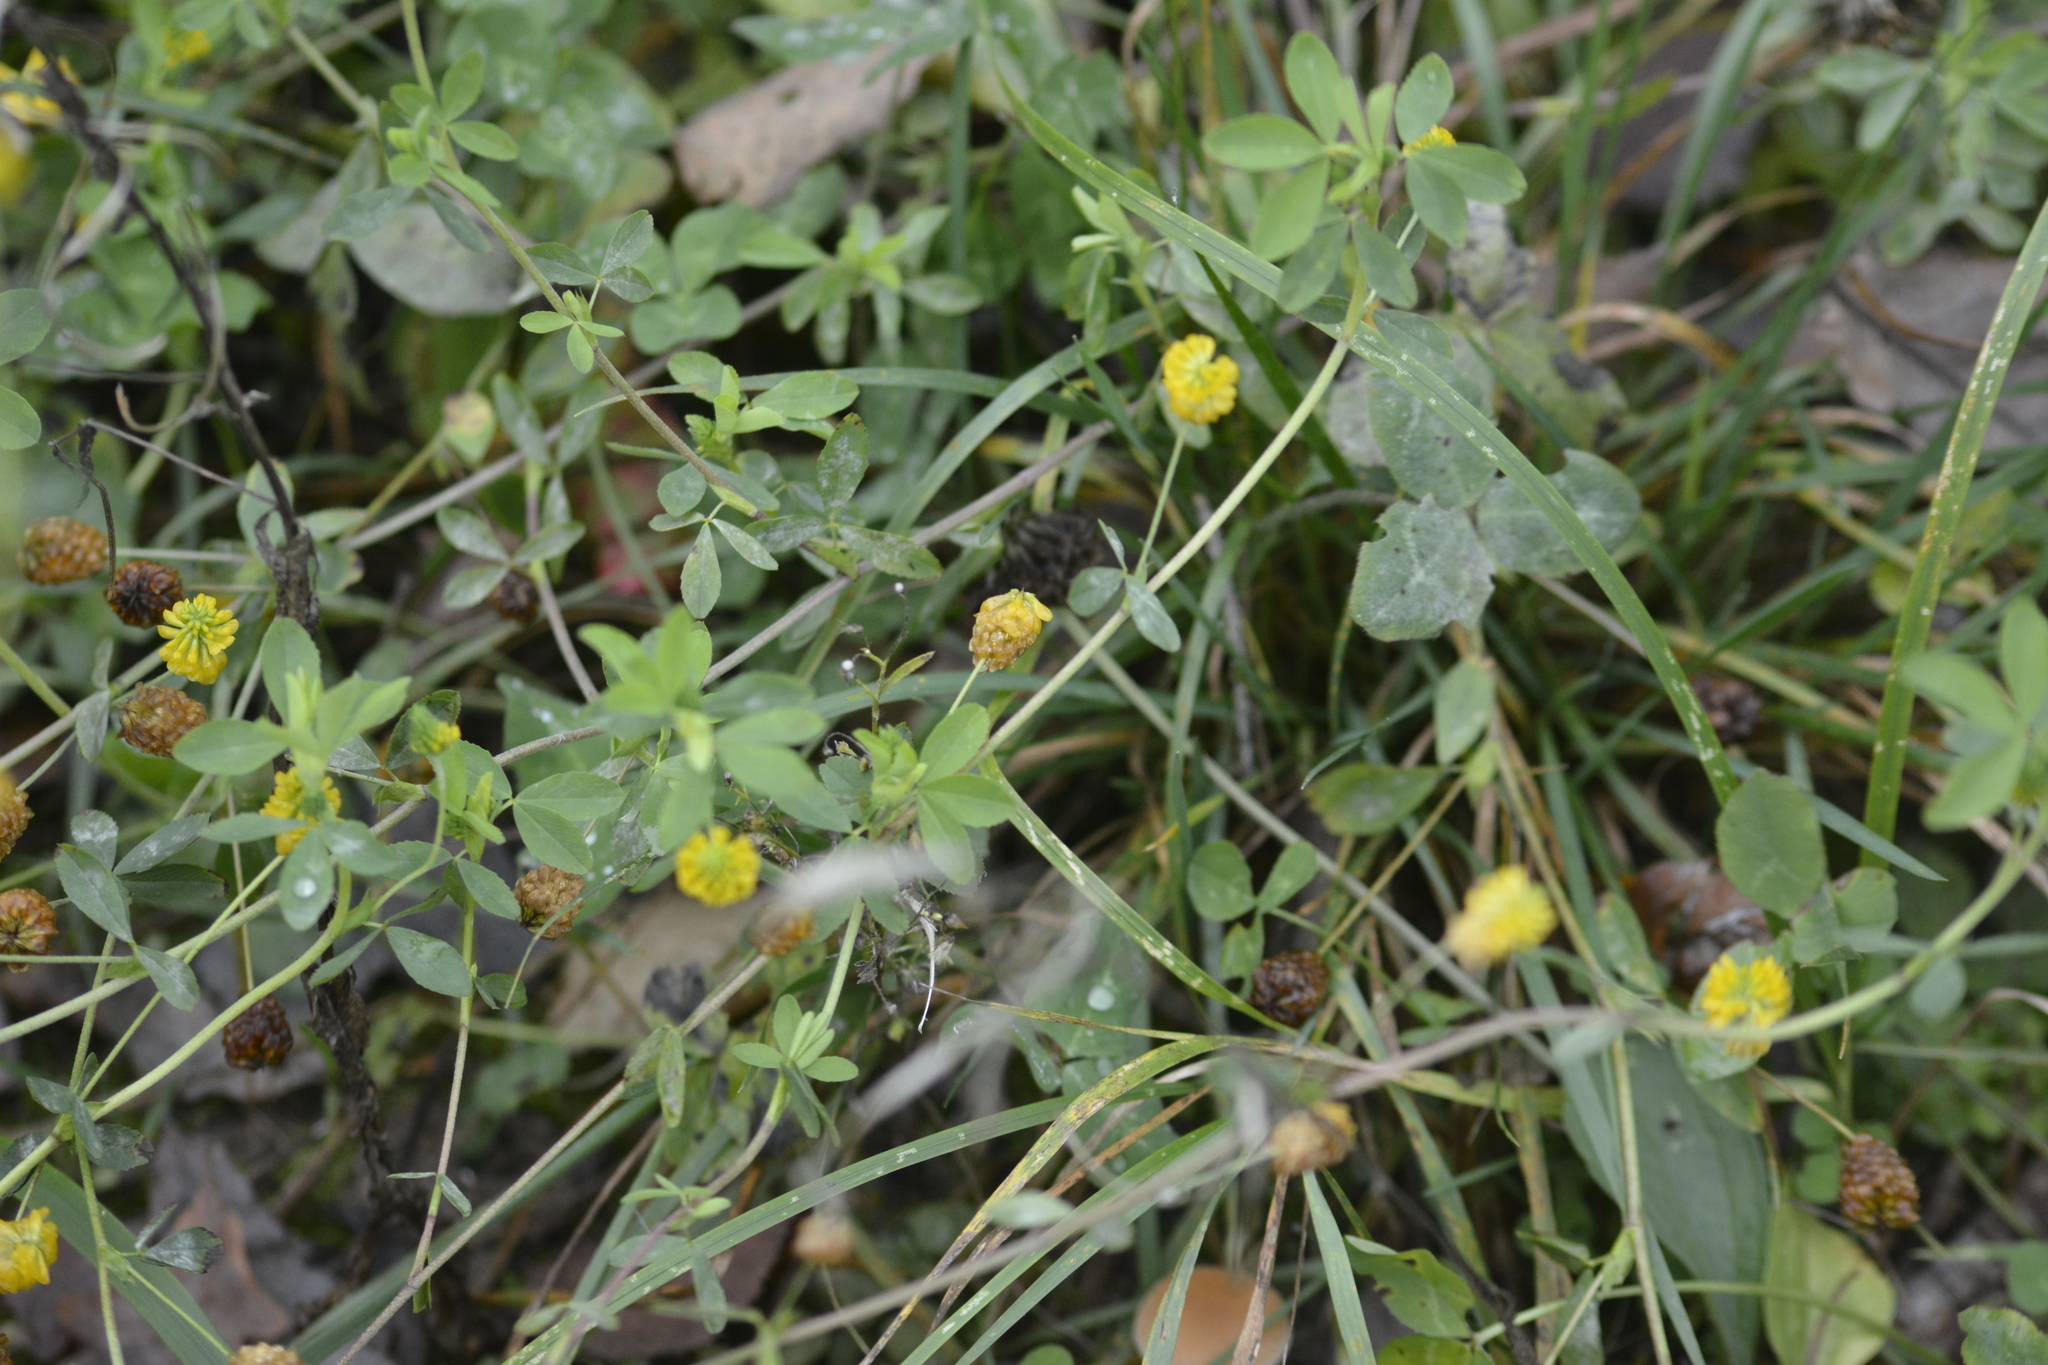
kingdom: Plantae
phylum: Tracheophyta
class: Magnoliopsida
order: Fabales
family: Fabaceae
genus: Trifolium
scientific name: Trifolium aureum
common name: Golden clover
